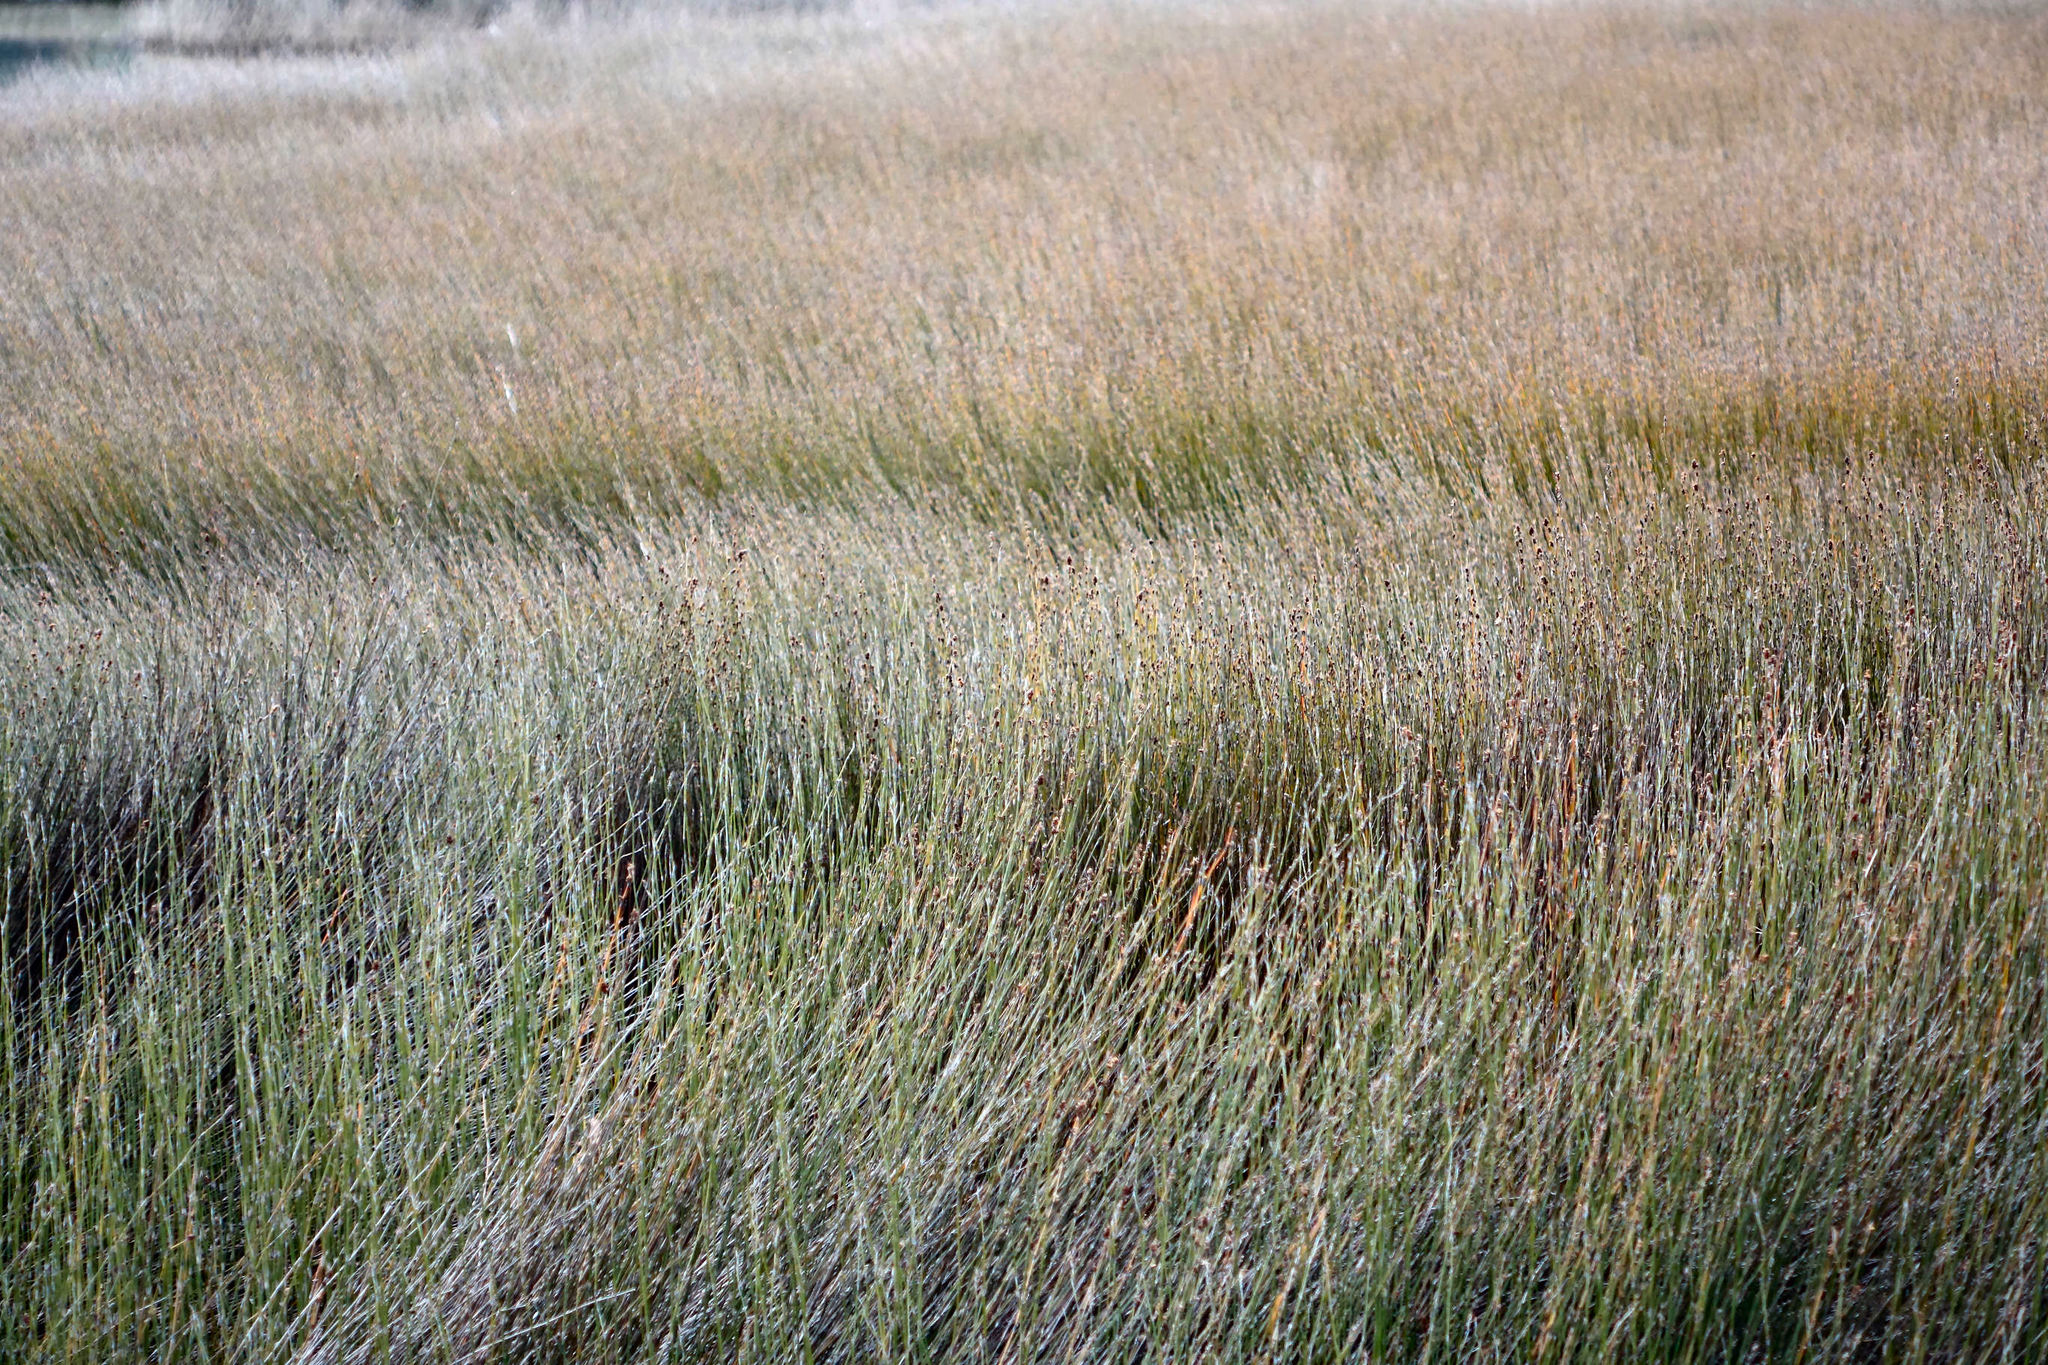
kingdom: Plantae
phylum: Tracheophyta
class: Liliopsida
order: Poales
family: Restionaceae
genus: Apodasmia
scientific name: Apodasmia similis
